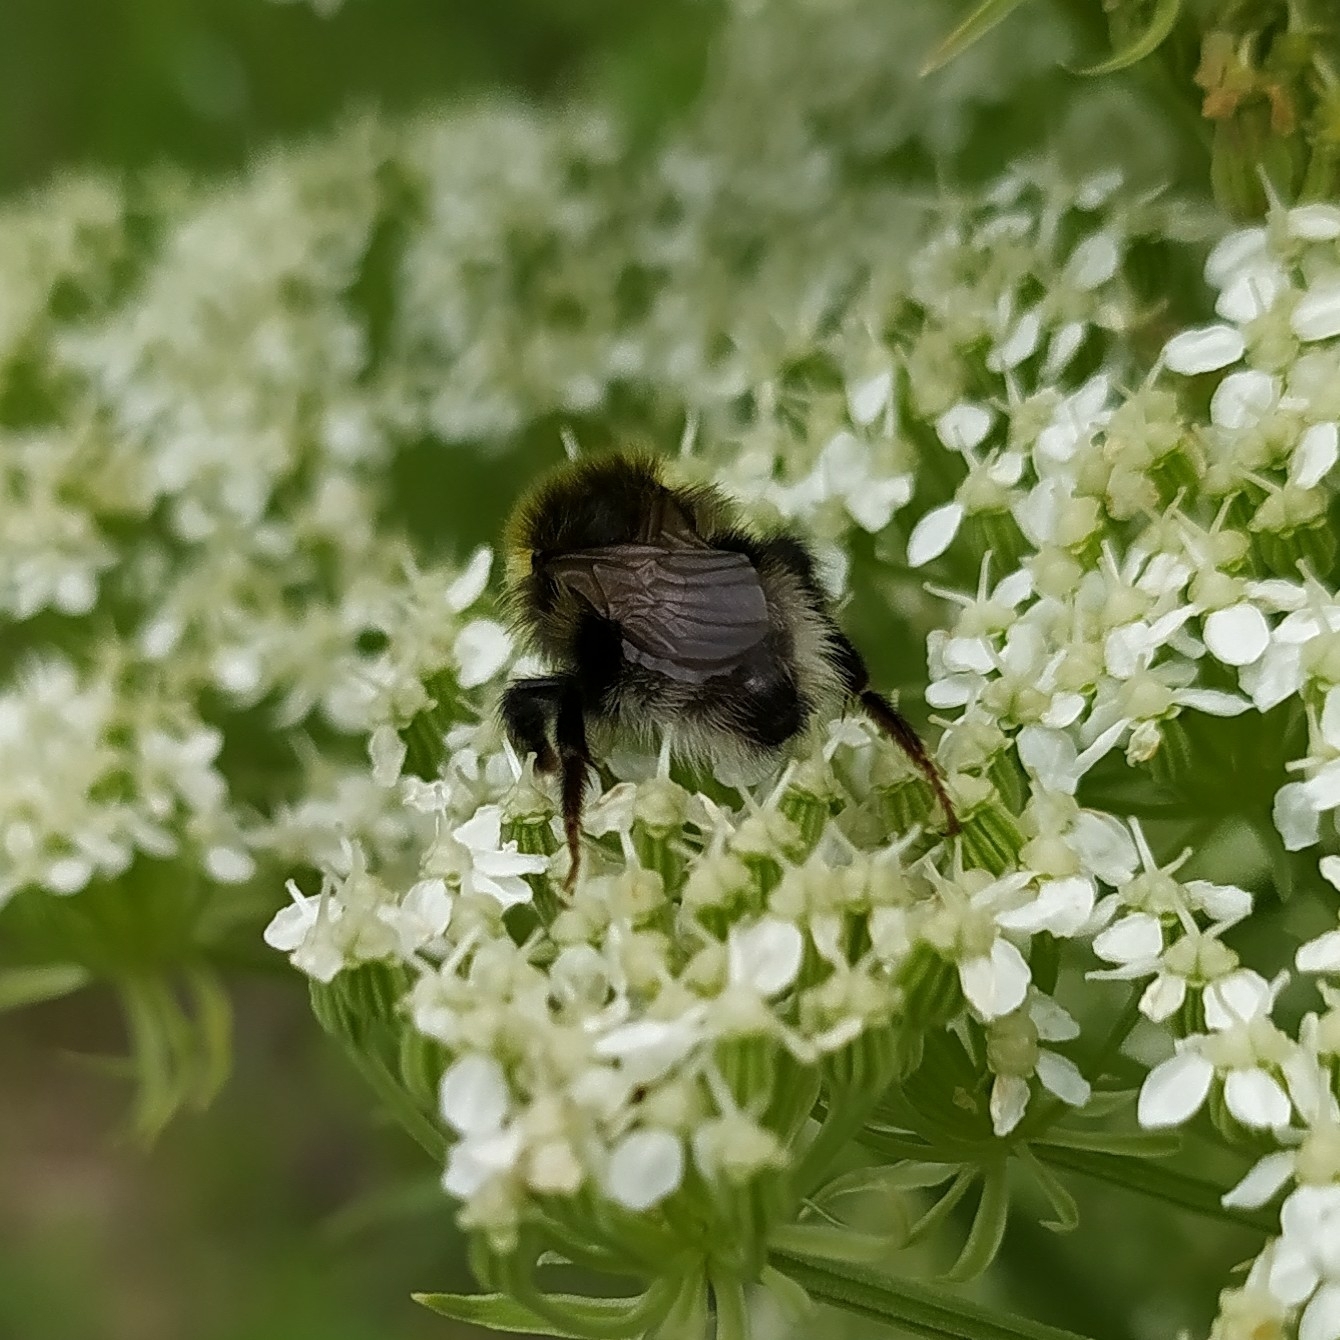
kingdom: Animalia
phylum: Arthropoda
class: Insecta
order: Hymenoptera
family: Apidae
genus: Bombus
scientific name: Bombus bohemicus
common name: Gypsy cuckoo bee
